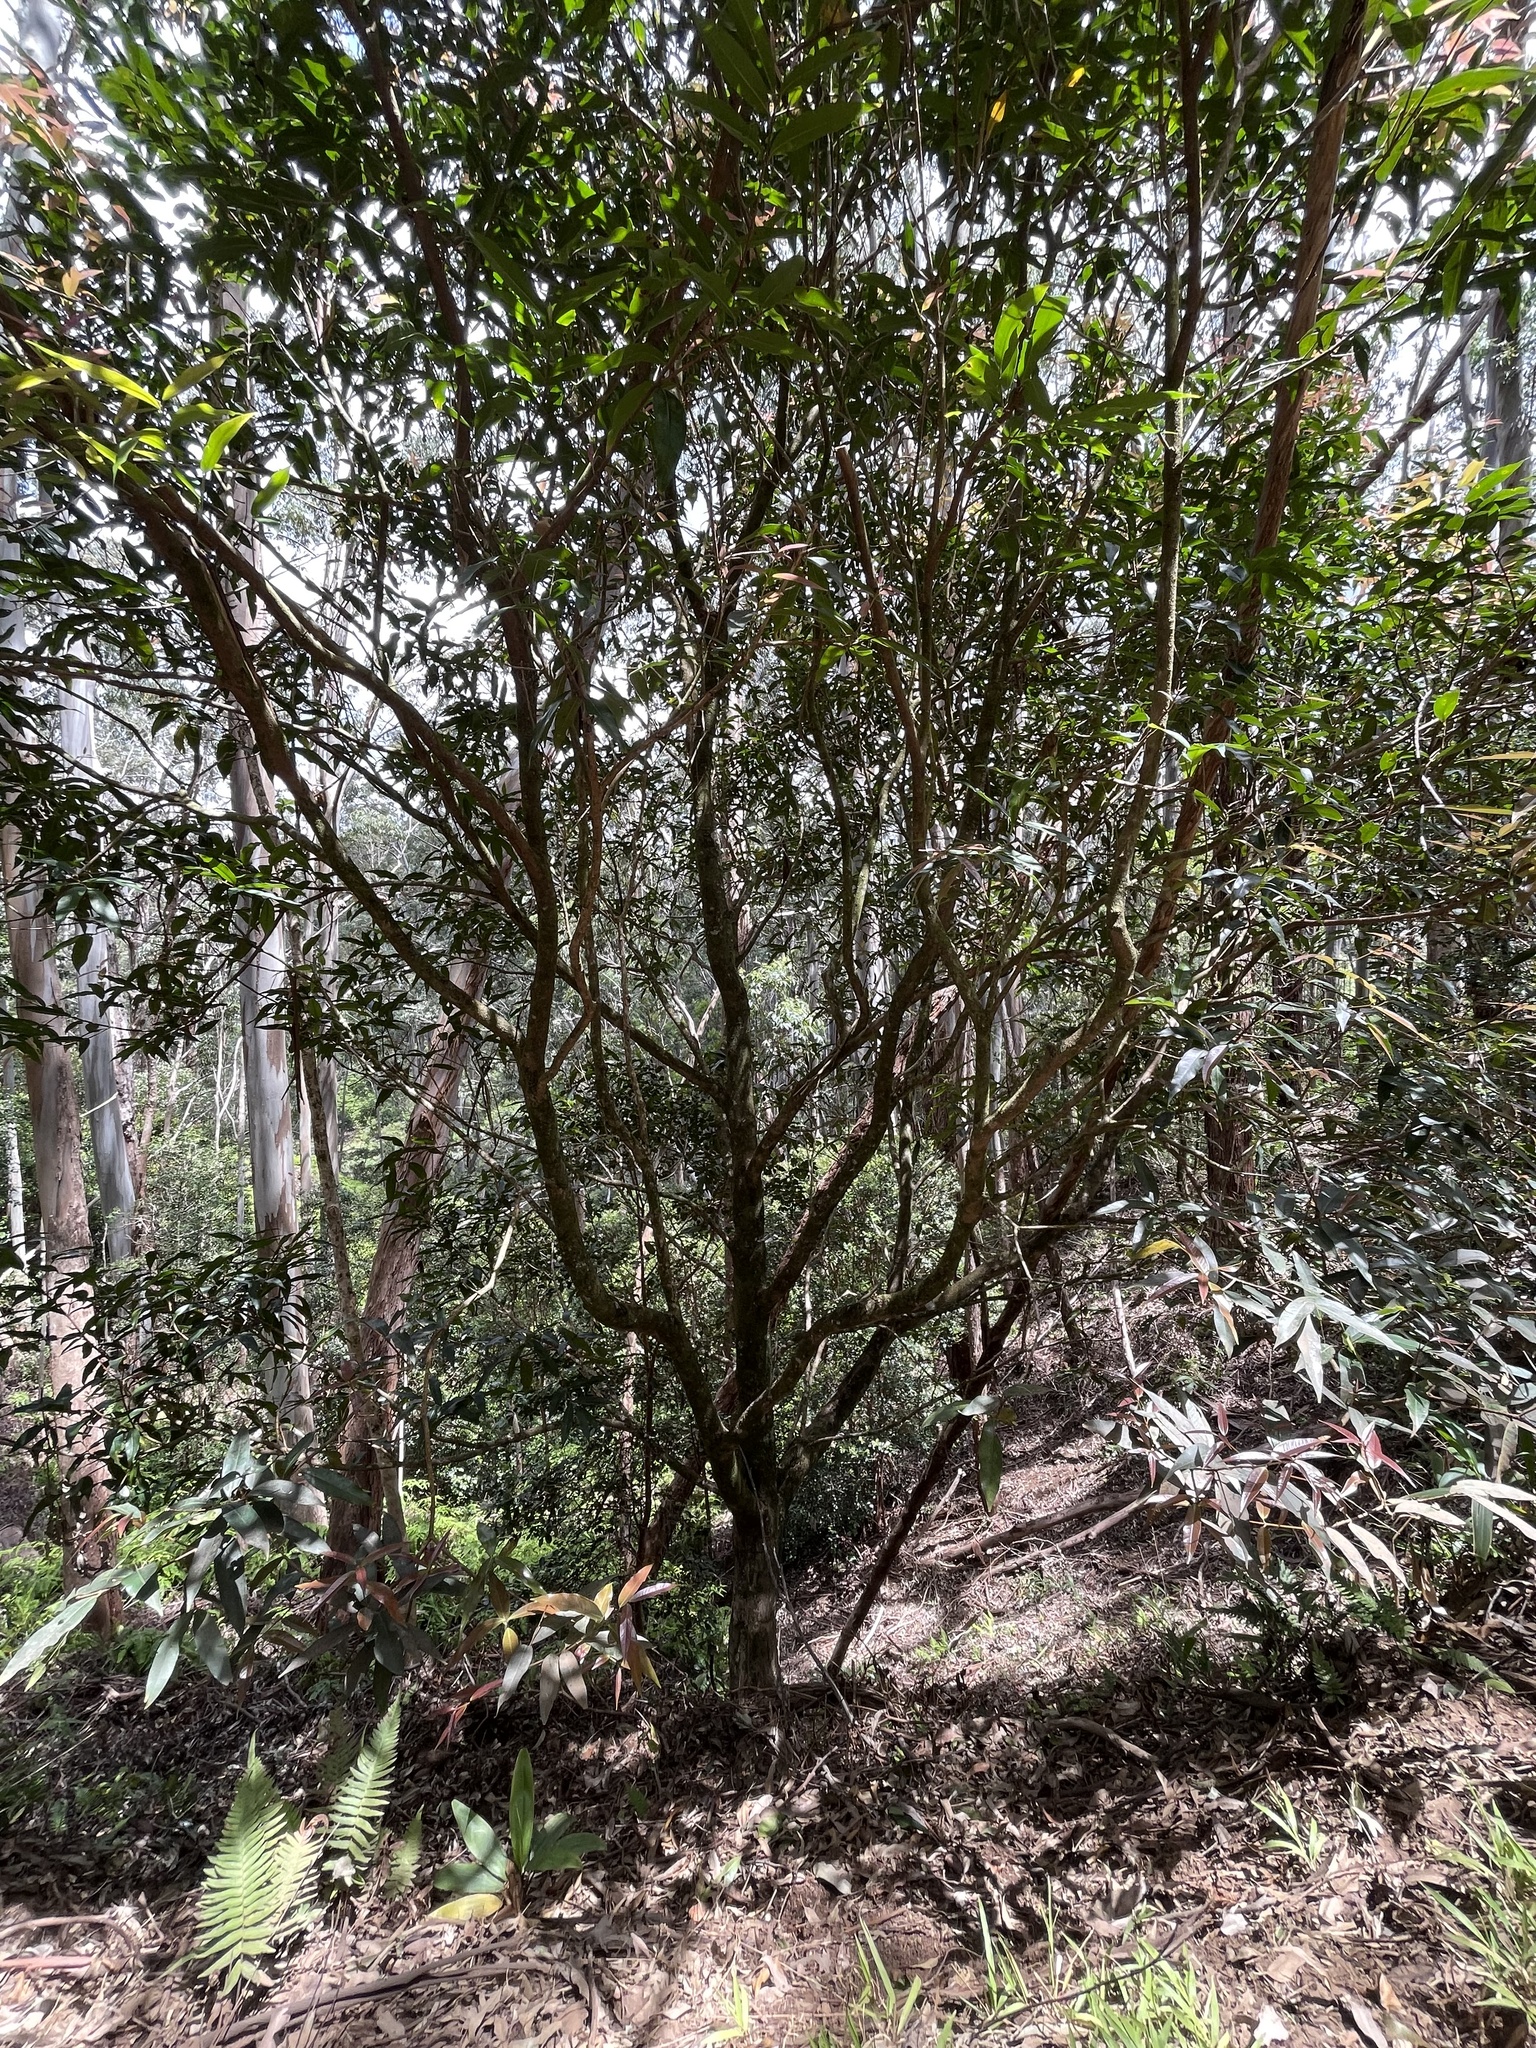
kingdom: Plantae
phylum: Tracheophyta
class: Magnoliopsida
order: Myrtales
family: Myrtaceae
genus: Syzygium
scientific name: Syzygium jambos
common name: Malabar plum
